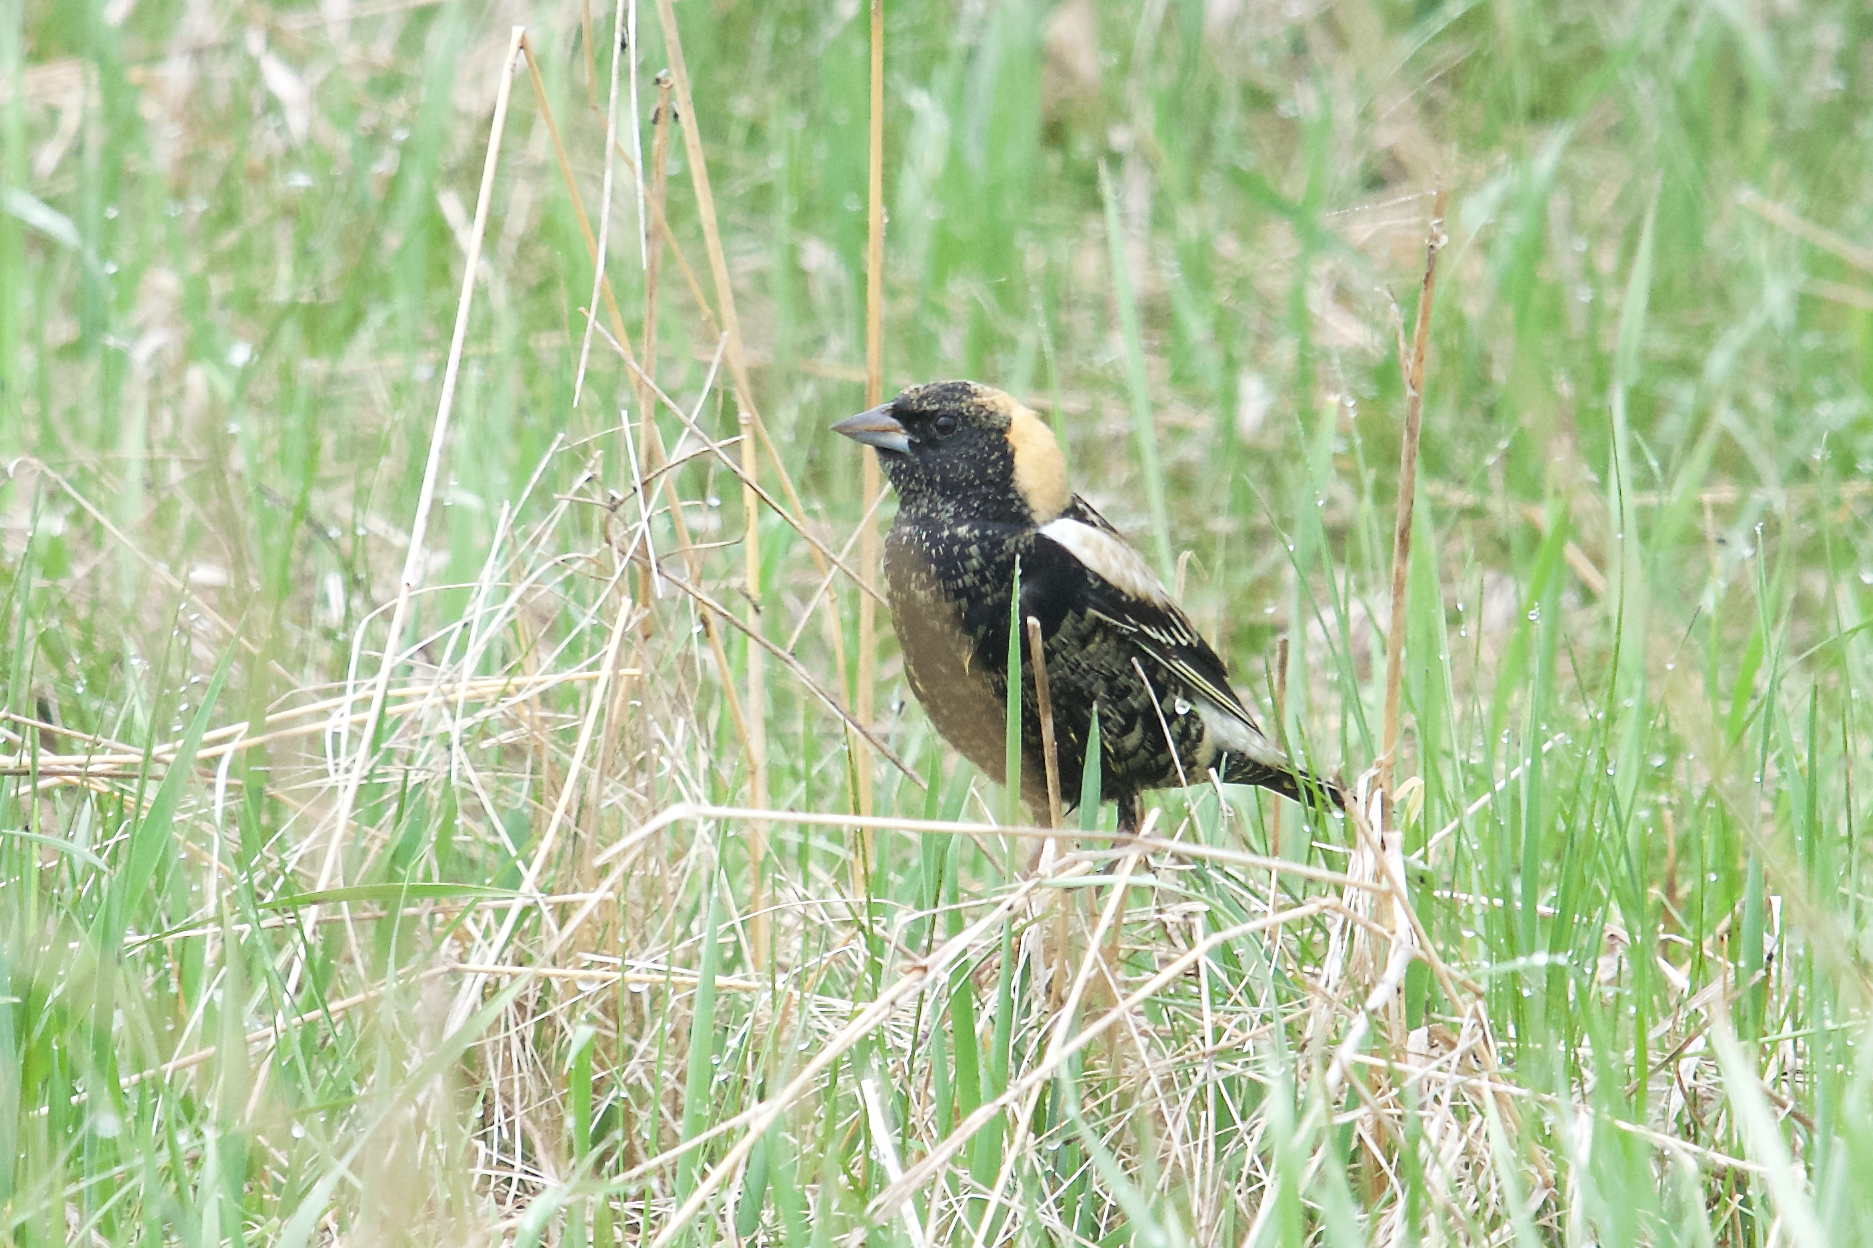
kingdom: Animalia
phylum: Chordata
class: Aves
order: Passeriformes
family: Icteridae
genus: Dolichonyx
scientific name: Dolichonyx oryzivorus
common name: Bobolink
